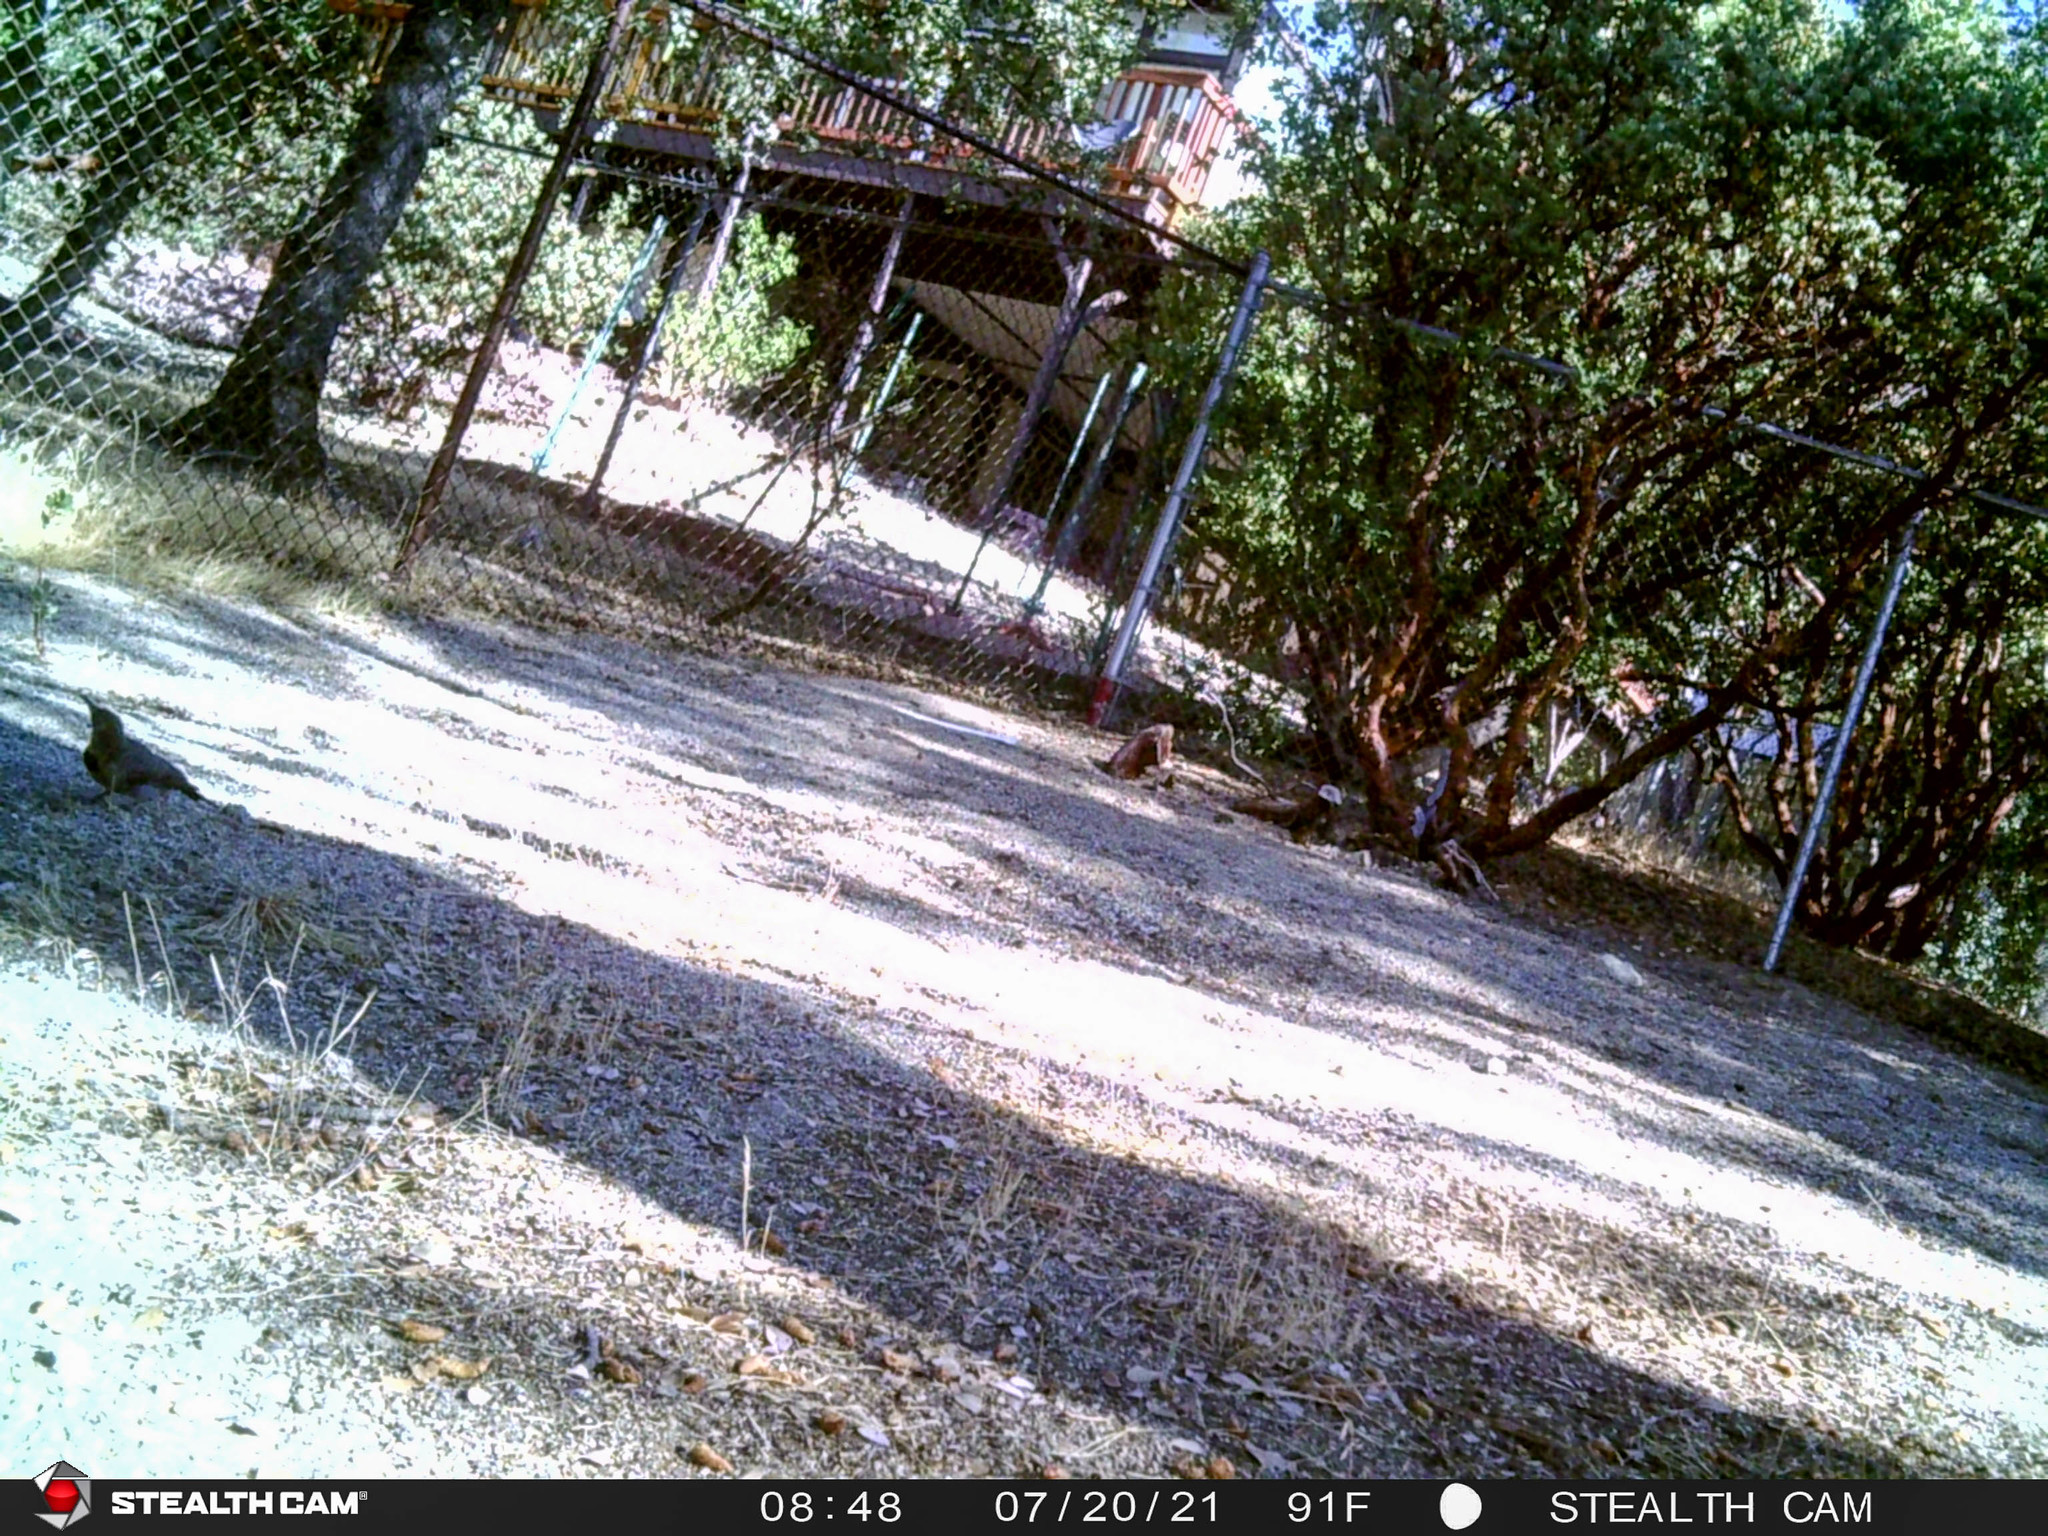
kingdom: Animalia
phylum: Chordata
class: Aves
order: Piciformes
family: Picidae
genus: Colaptes
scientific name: Colaptes auratus
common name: Northern flicker
